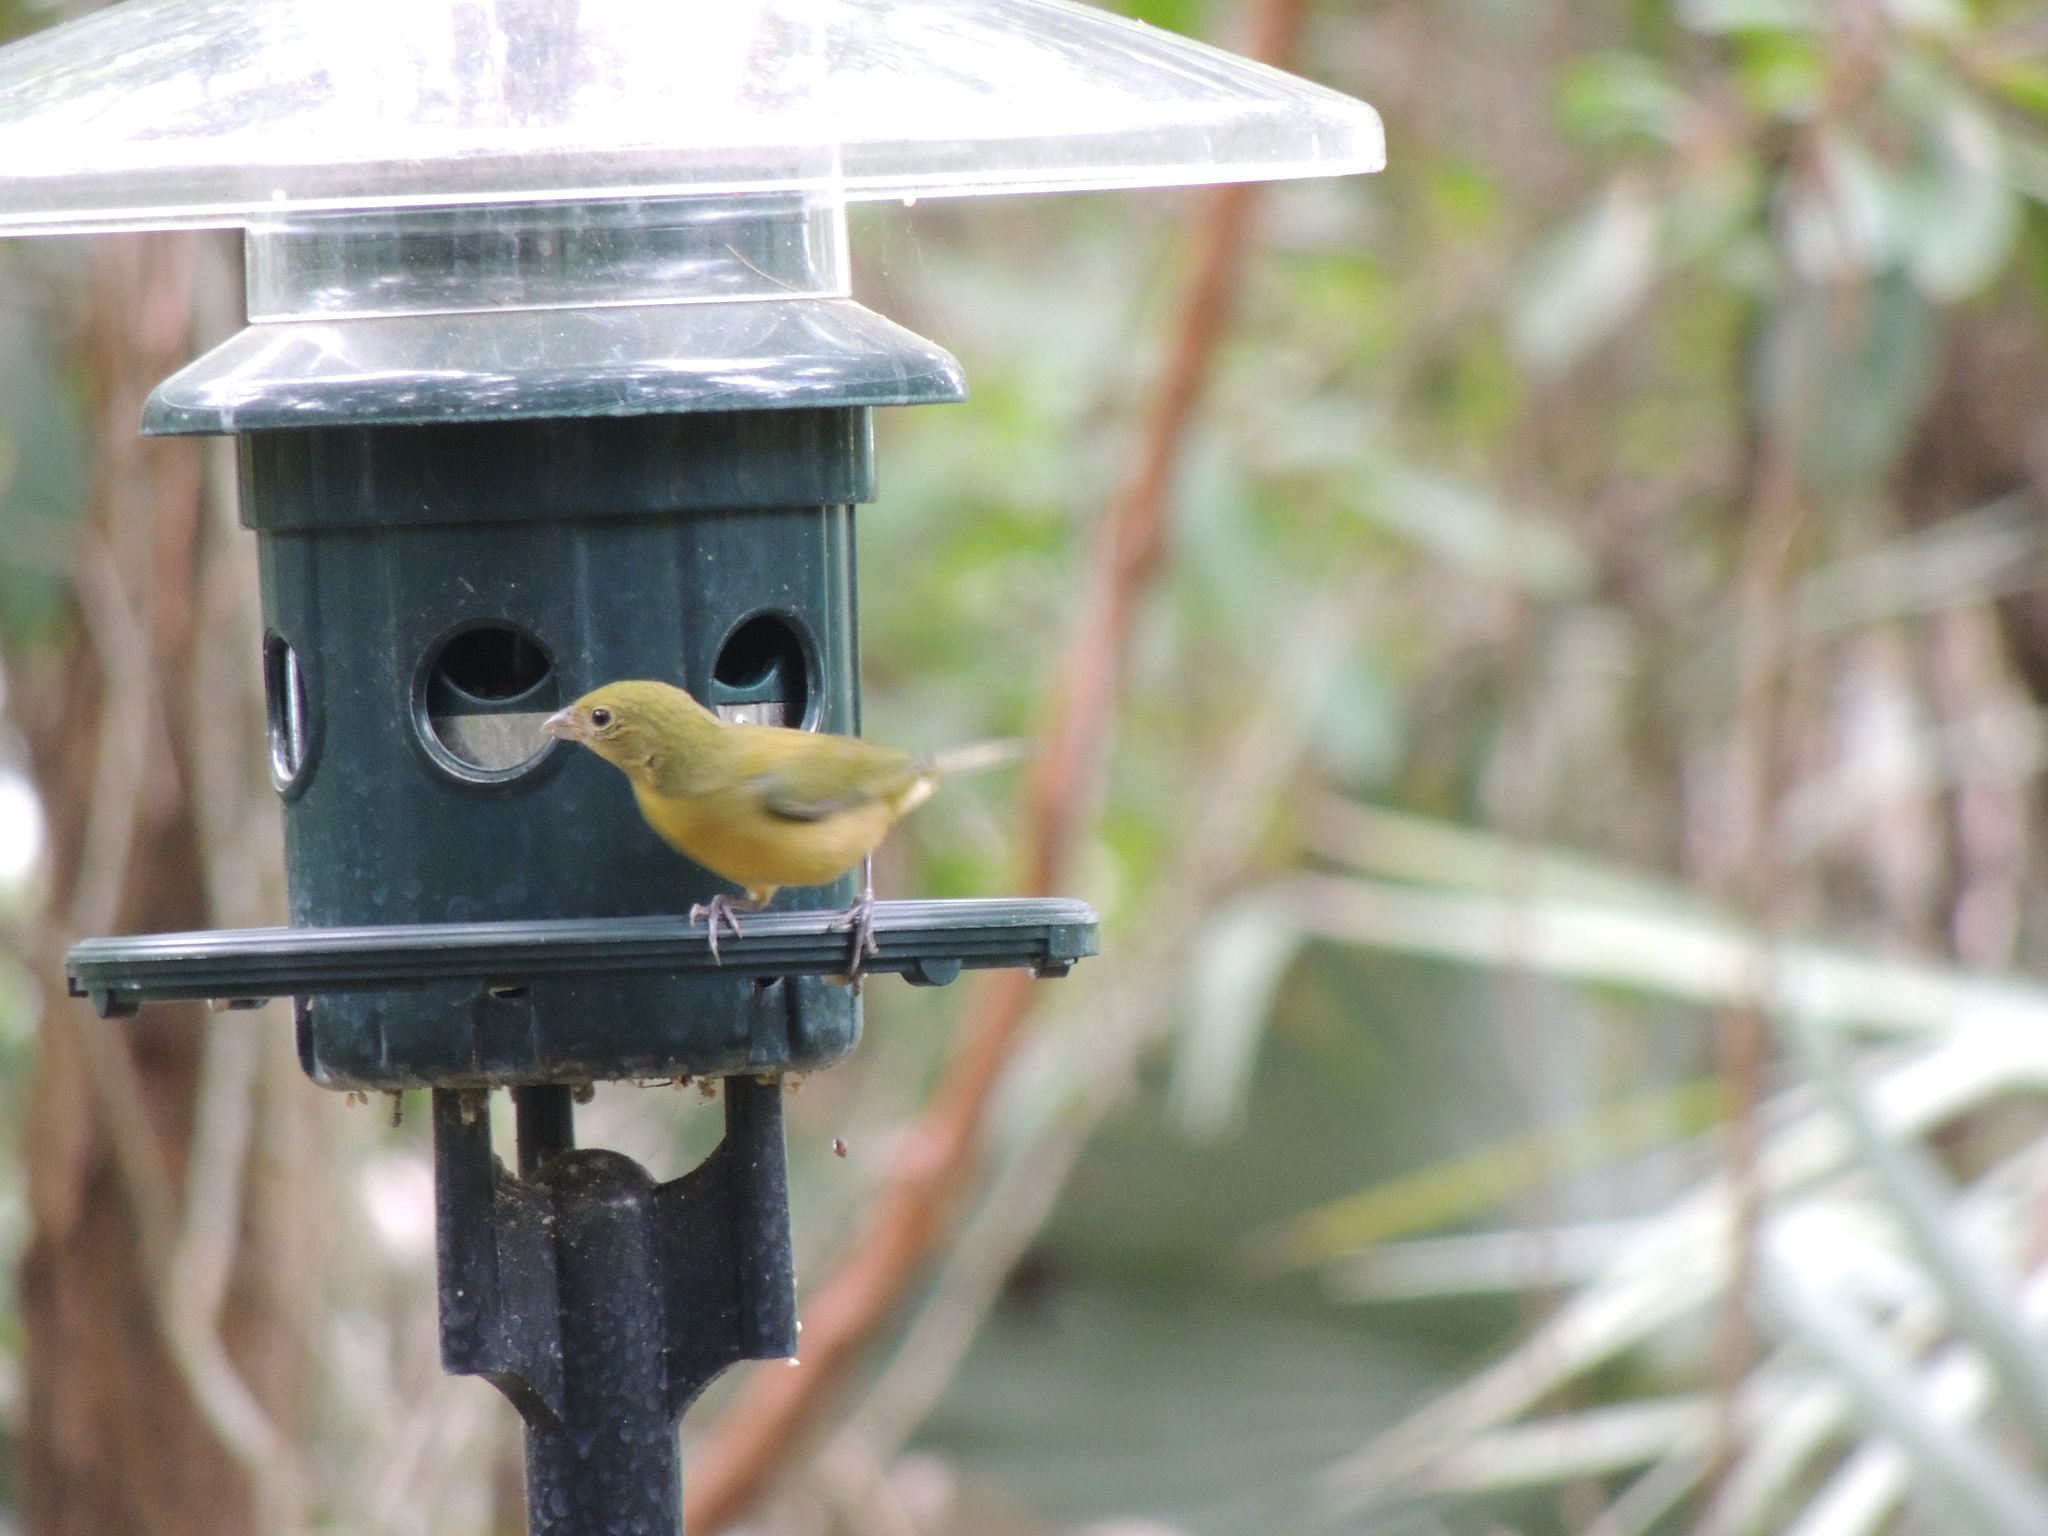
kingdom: Animalia
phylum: Chordata
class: Aves
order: Passeriformes
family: Cardinalidae
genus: Passerina
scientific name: Passerina ciris
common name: Painted bunting
